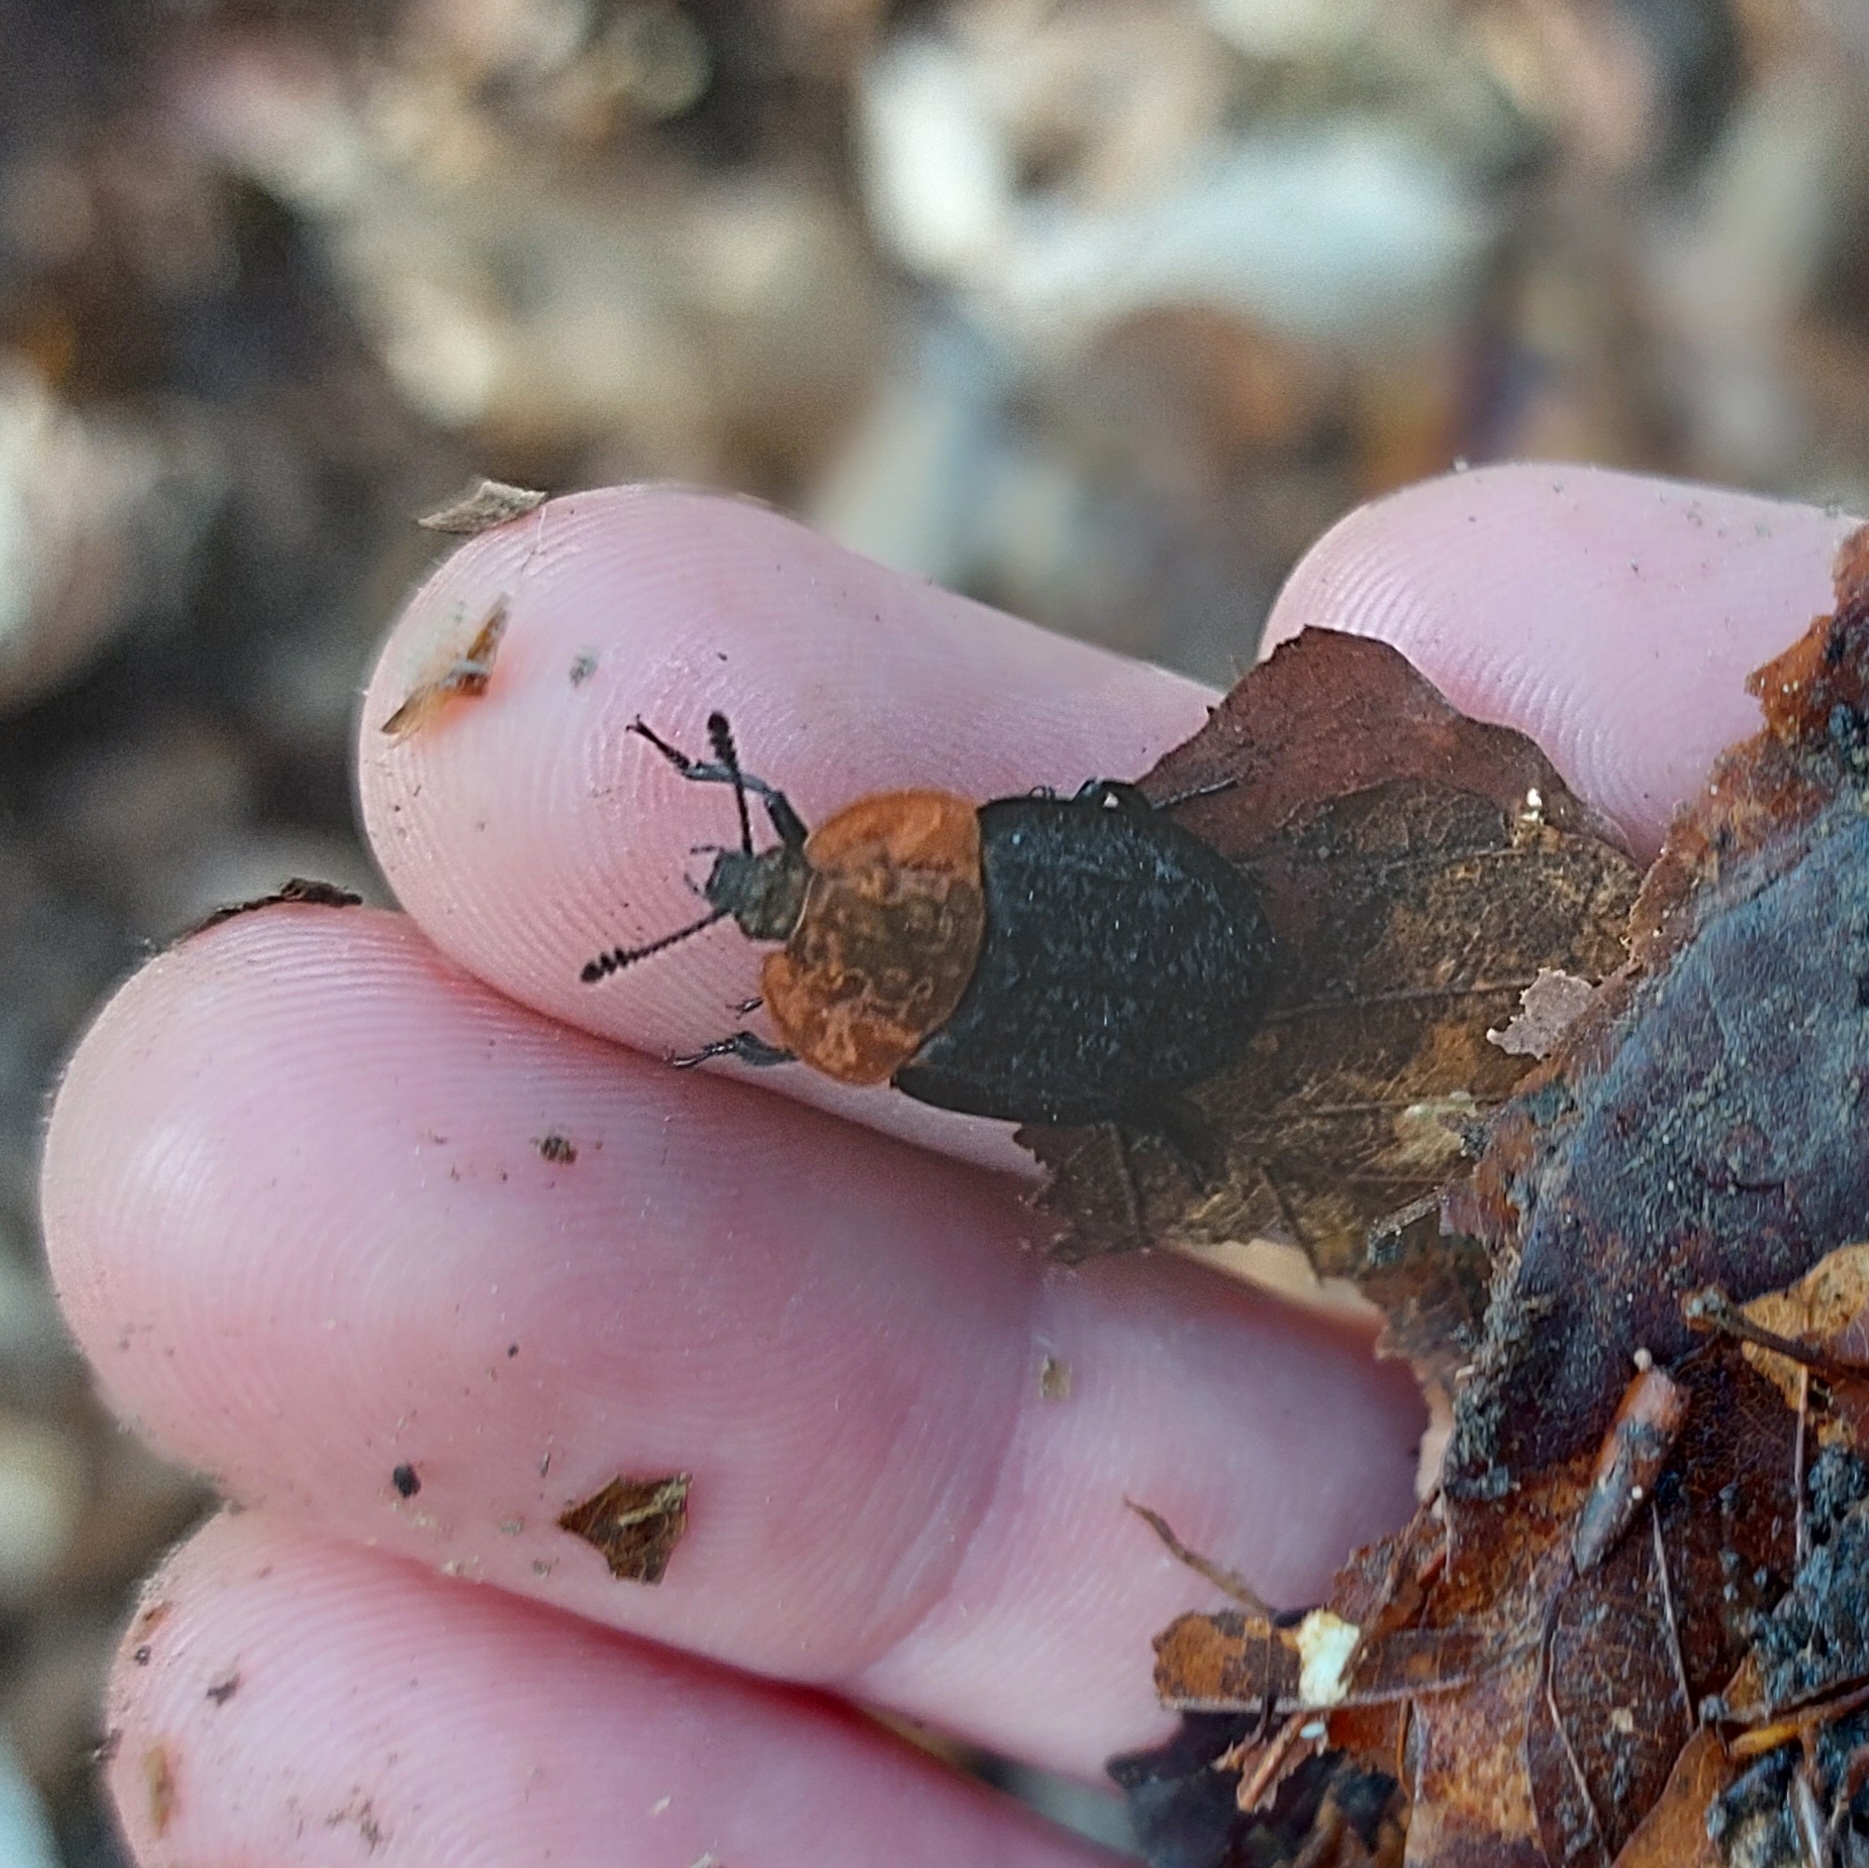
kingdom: Animalia
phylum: Arthropoda
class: Insecta
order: Coleoptera
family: Staphylinidae
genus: Oiceoptoma
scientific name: Oiceoptoma thoracicum
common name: Red-breasted carrion beetle
